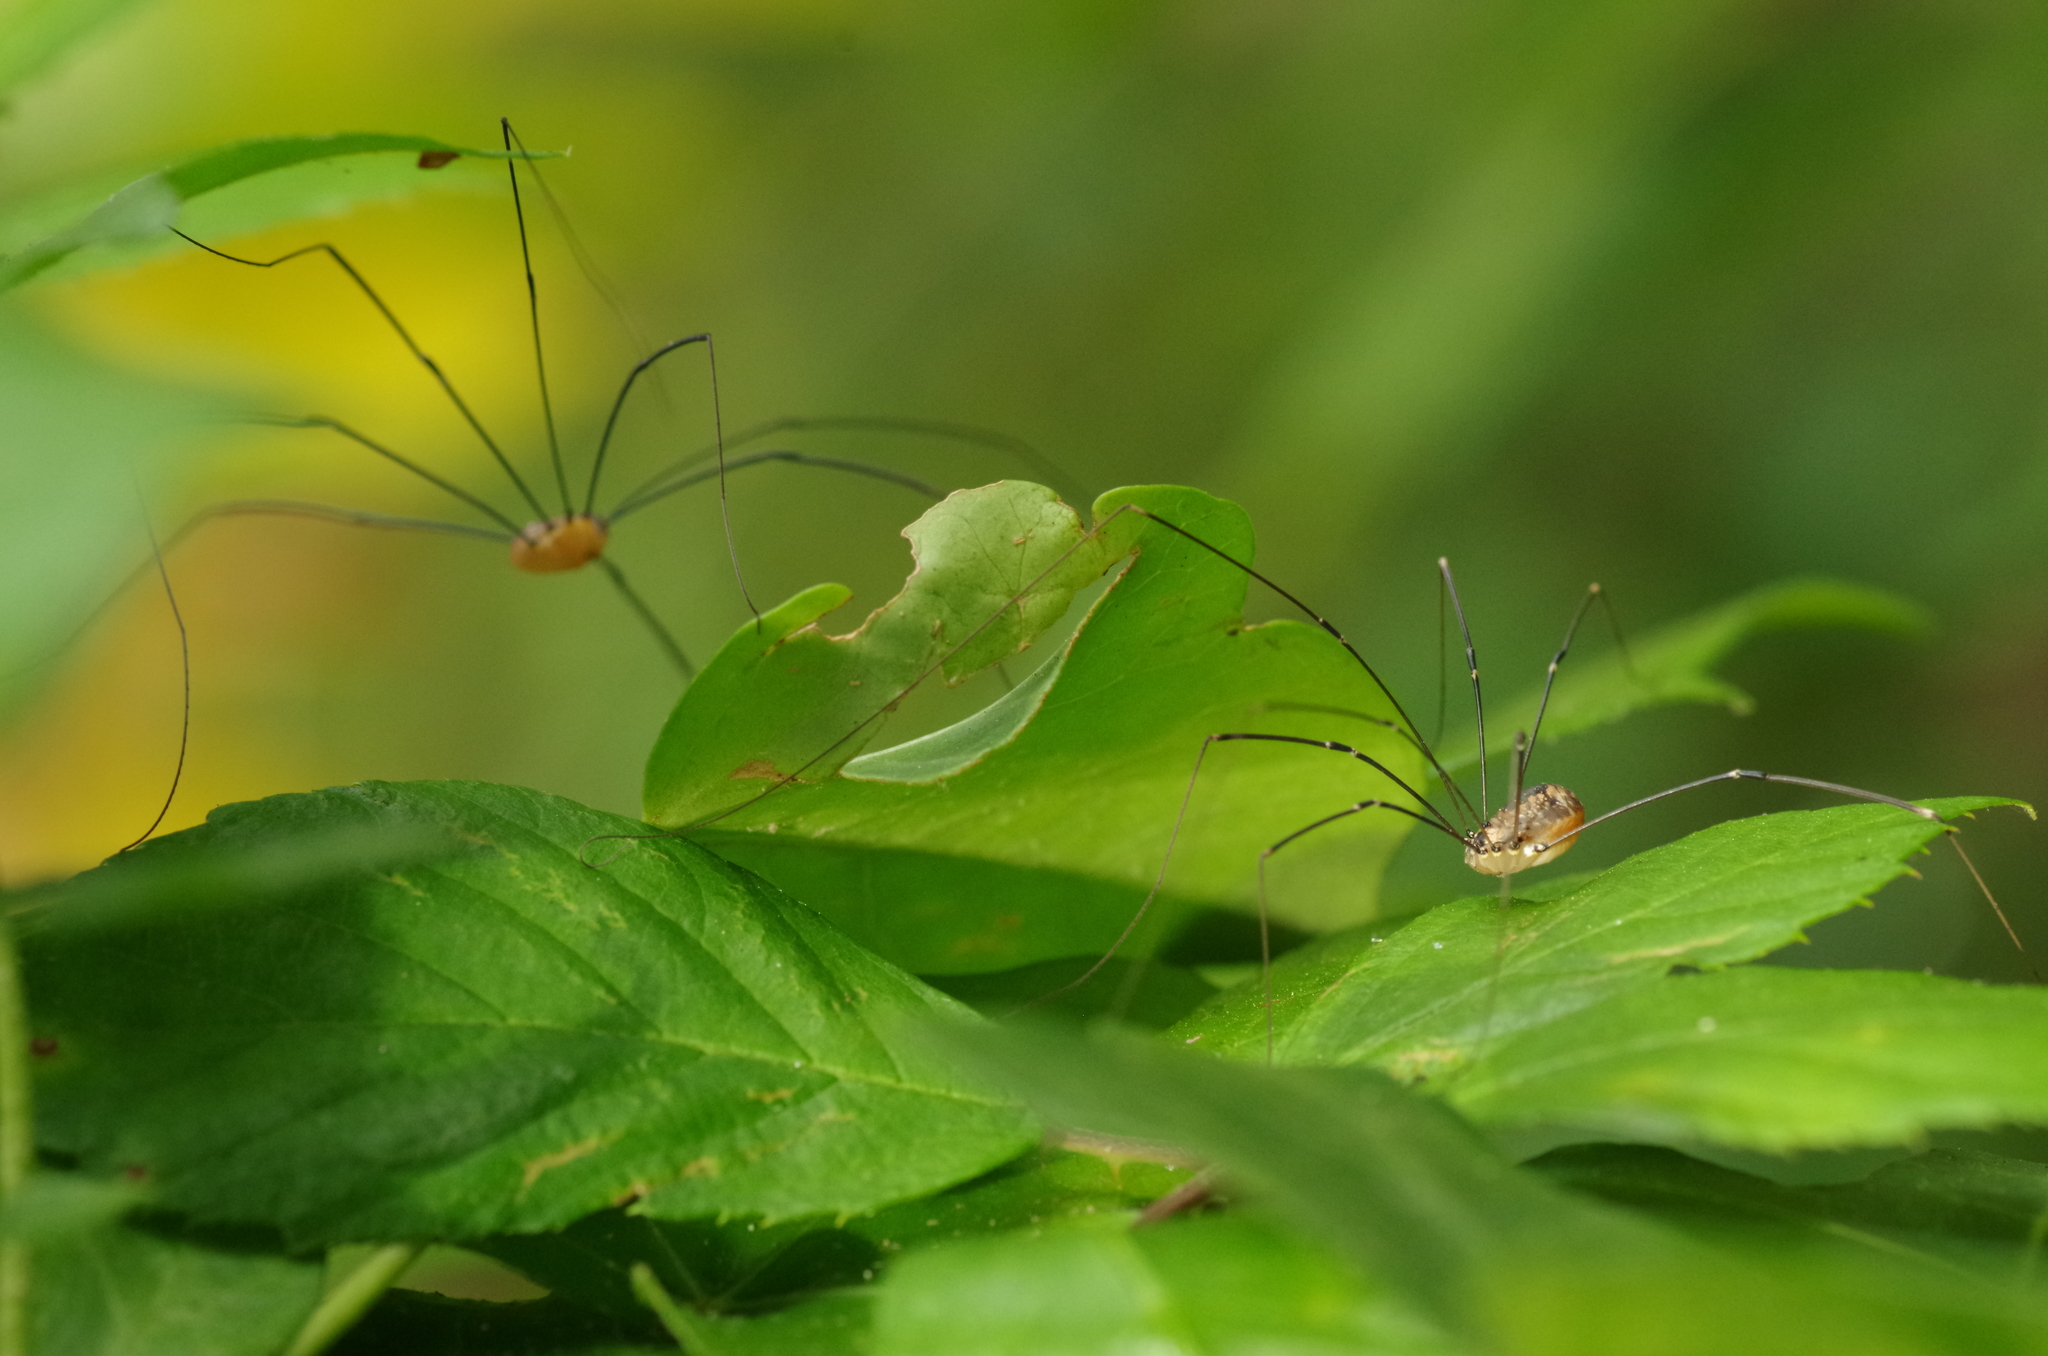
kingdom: Animalia
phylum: Arthropoda
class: Arachnida
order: Opiliones
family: Sclerosomatidae
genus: Leiobunum
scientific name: Leiobunum rotundum
